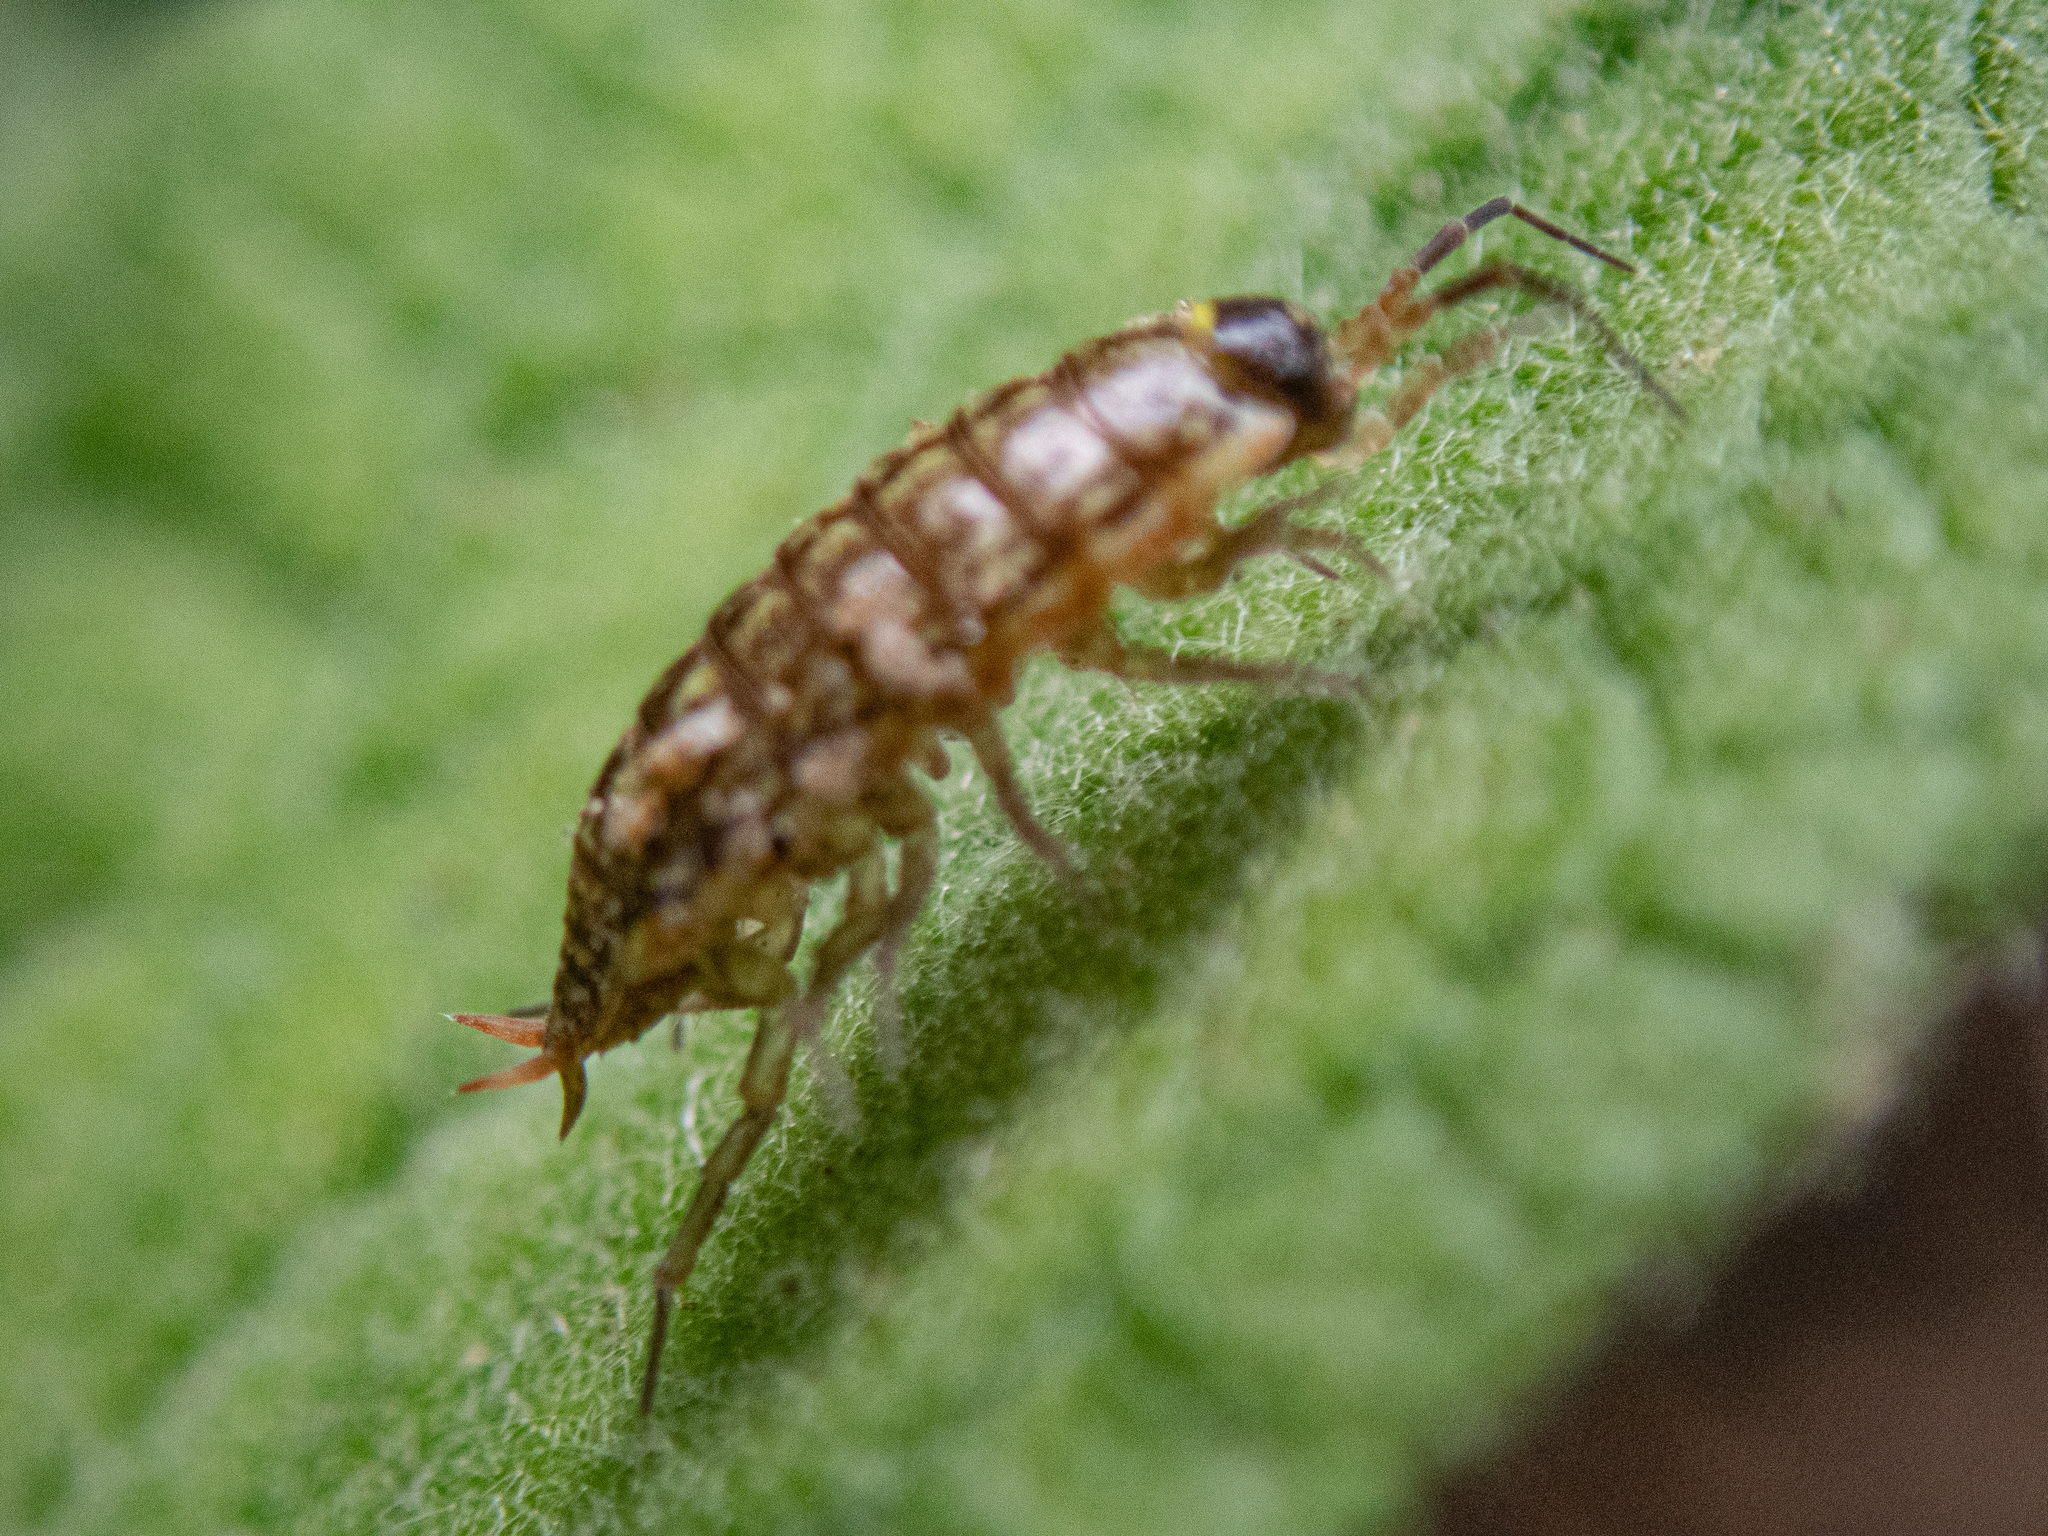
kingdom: Animalia
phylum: Arthropoda
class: Malacostraca
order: Isopoda
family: Philosciidae
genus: Philoscia
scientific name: Philoscia muscorum
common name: Common striped woodlouse
